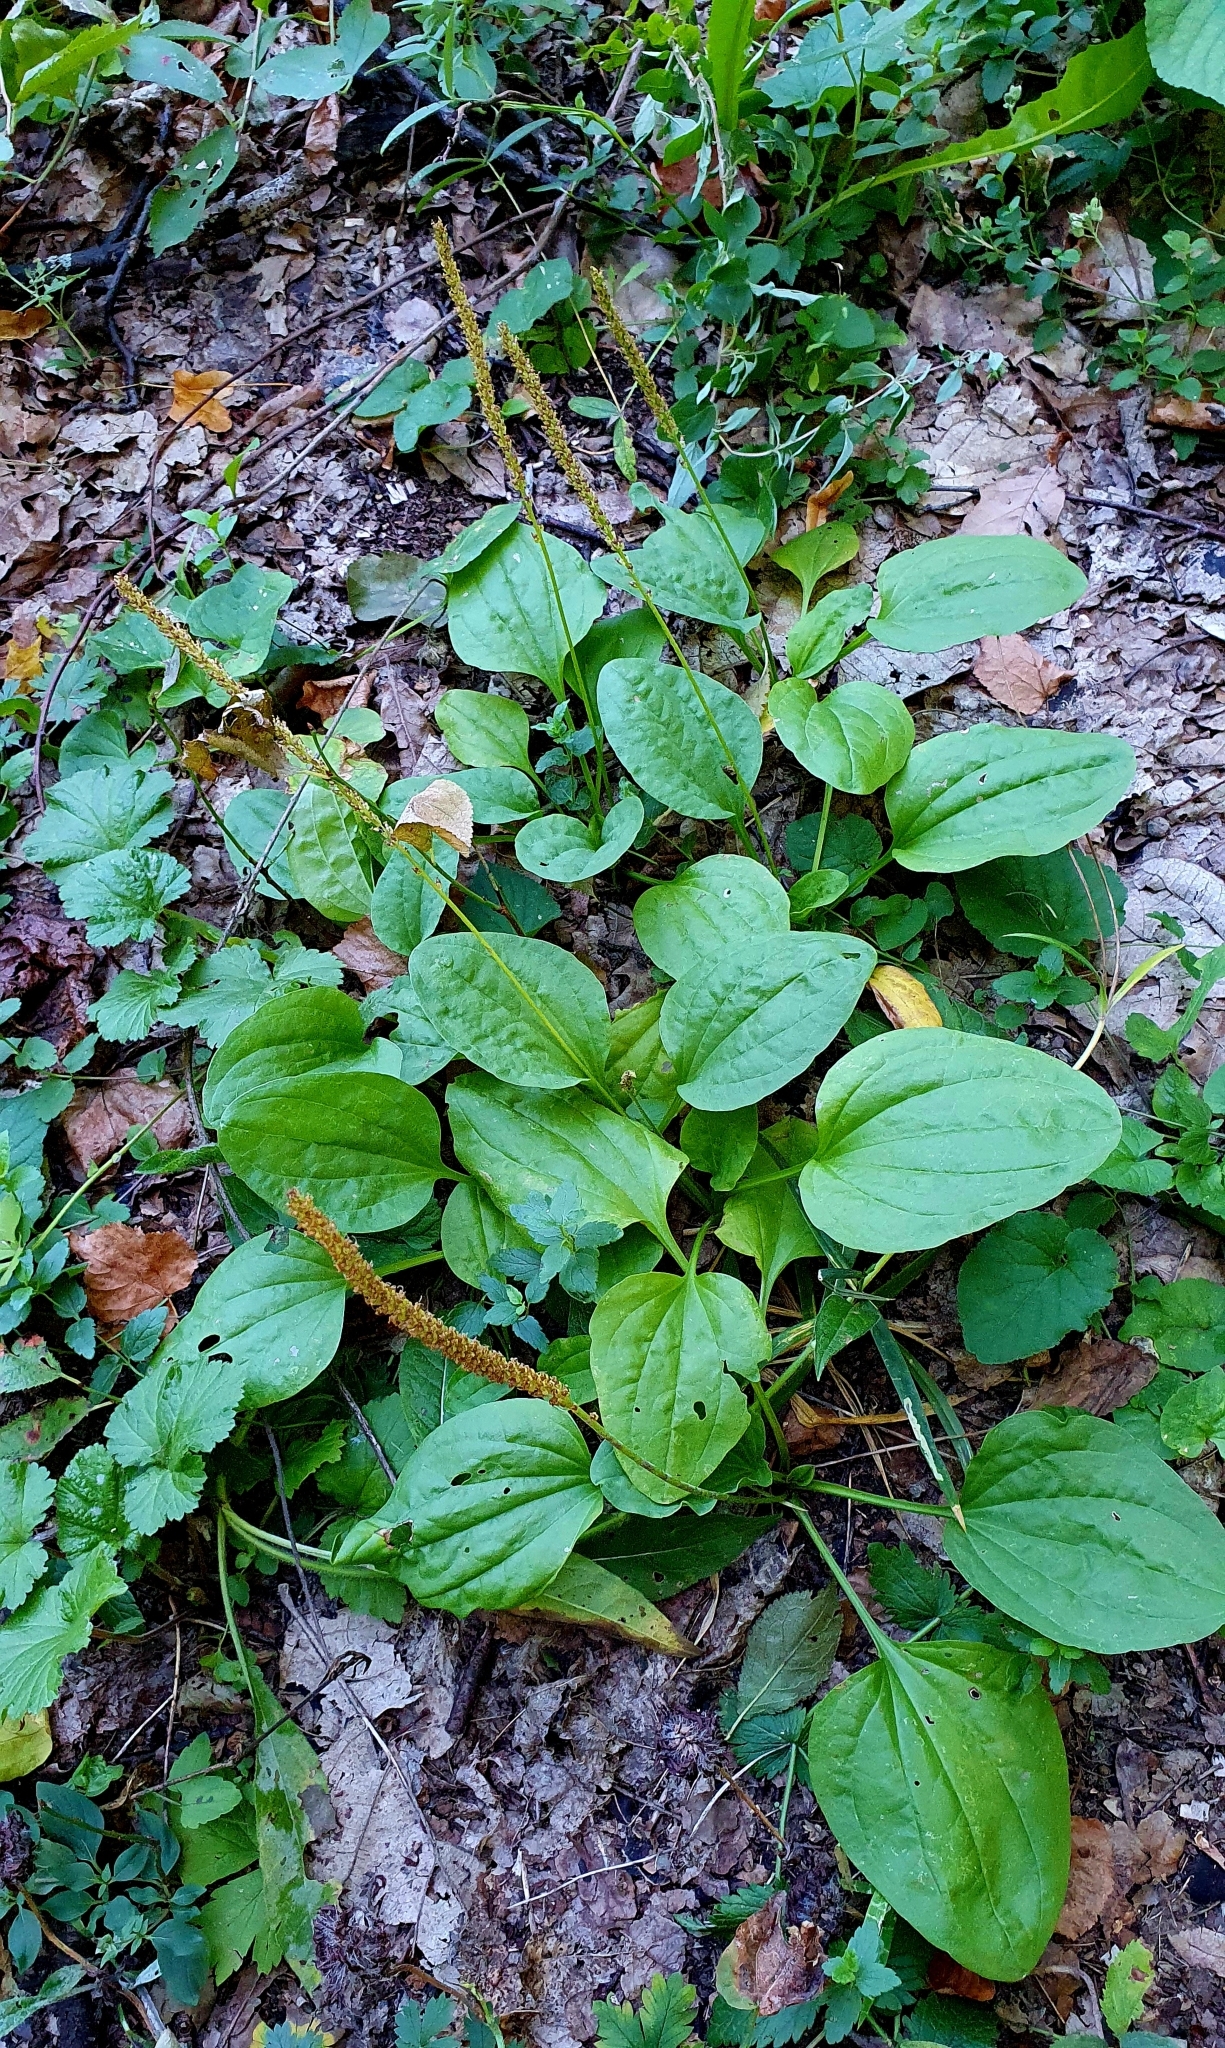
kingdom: Plantae
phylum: Tracheophyta
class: Magnoliopsida
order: Lamiales
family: Plantaginaceae
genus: Plantago
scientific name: Plantago major
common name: Common plantain
